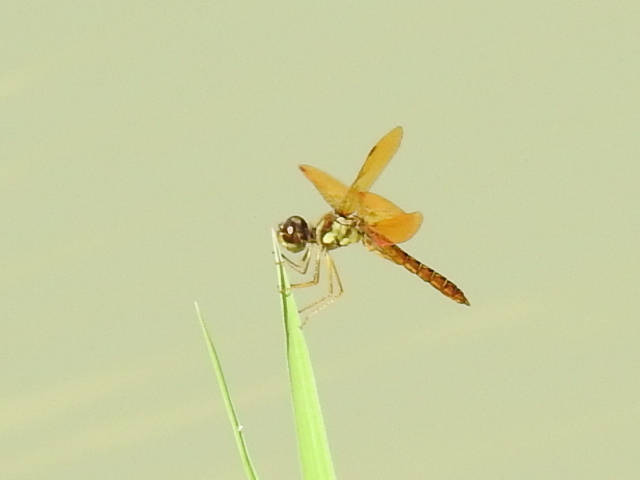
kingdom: Animalia
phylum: Arthropoda
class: Insecta
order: Odonata
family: Libellulidae
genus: Perithemis
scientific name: Perithemis tenera
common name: Eastern amberwing
